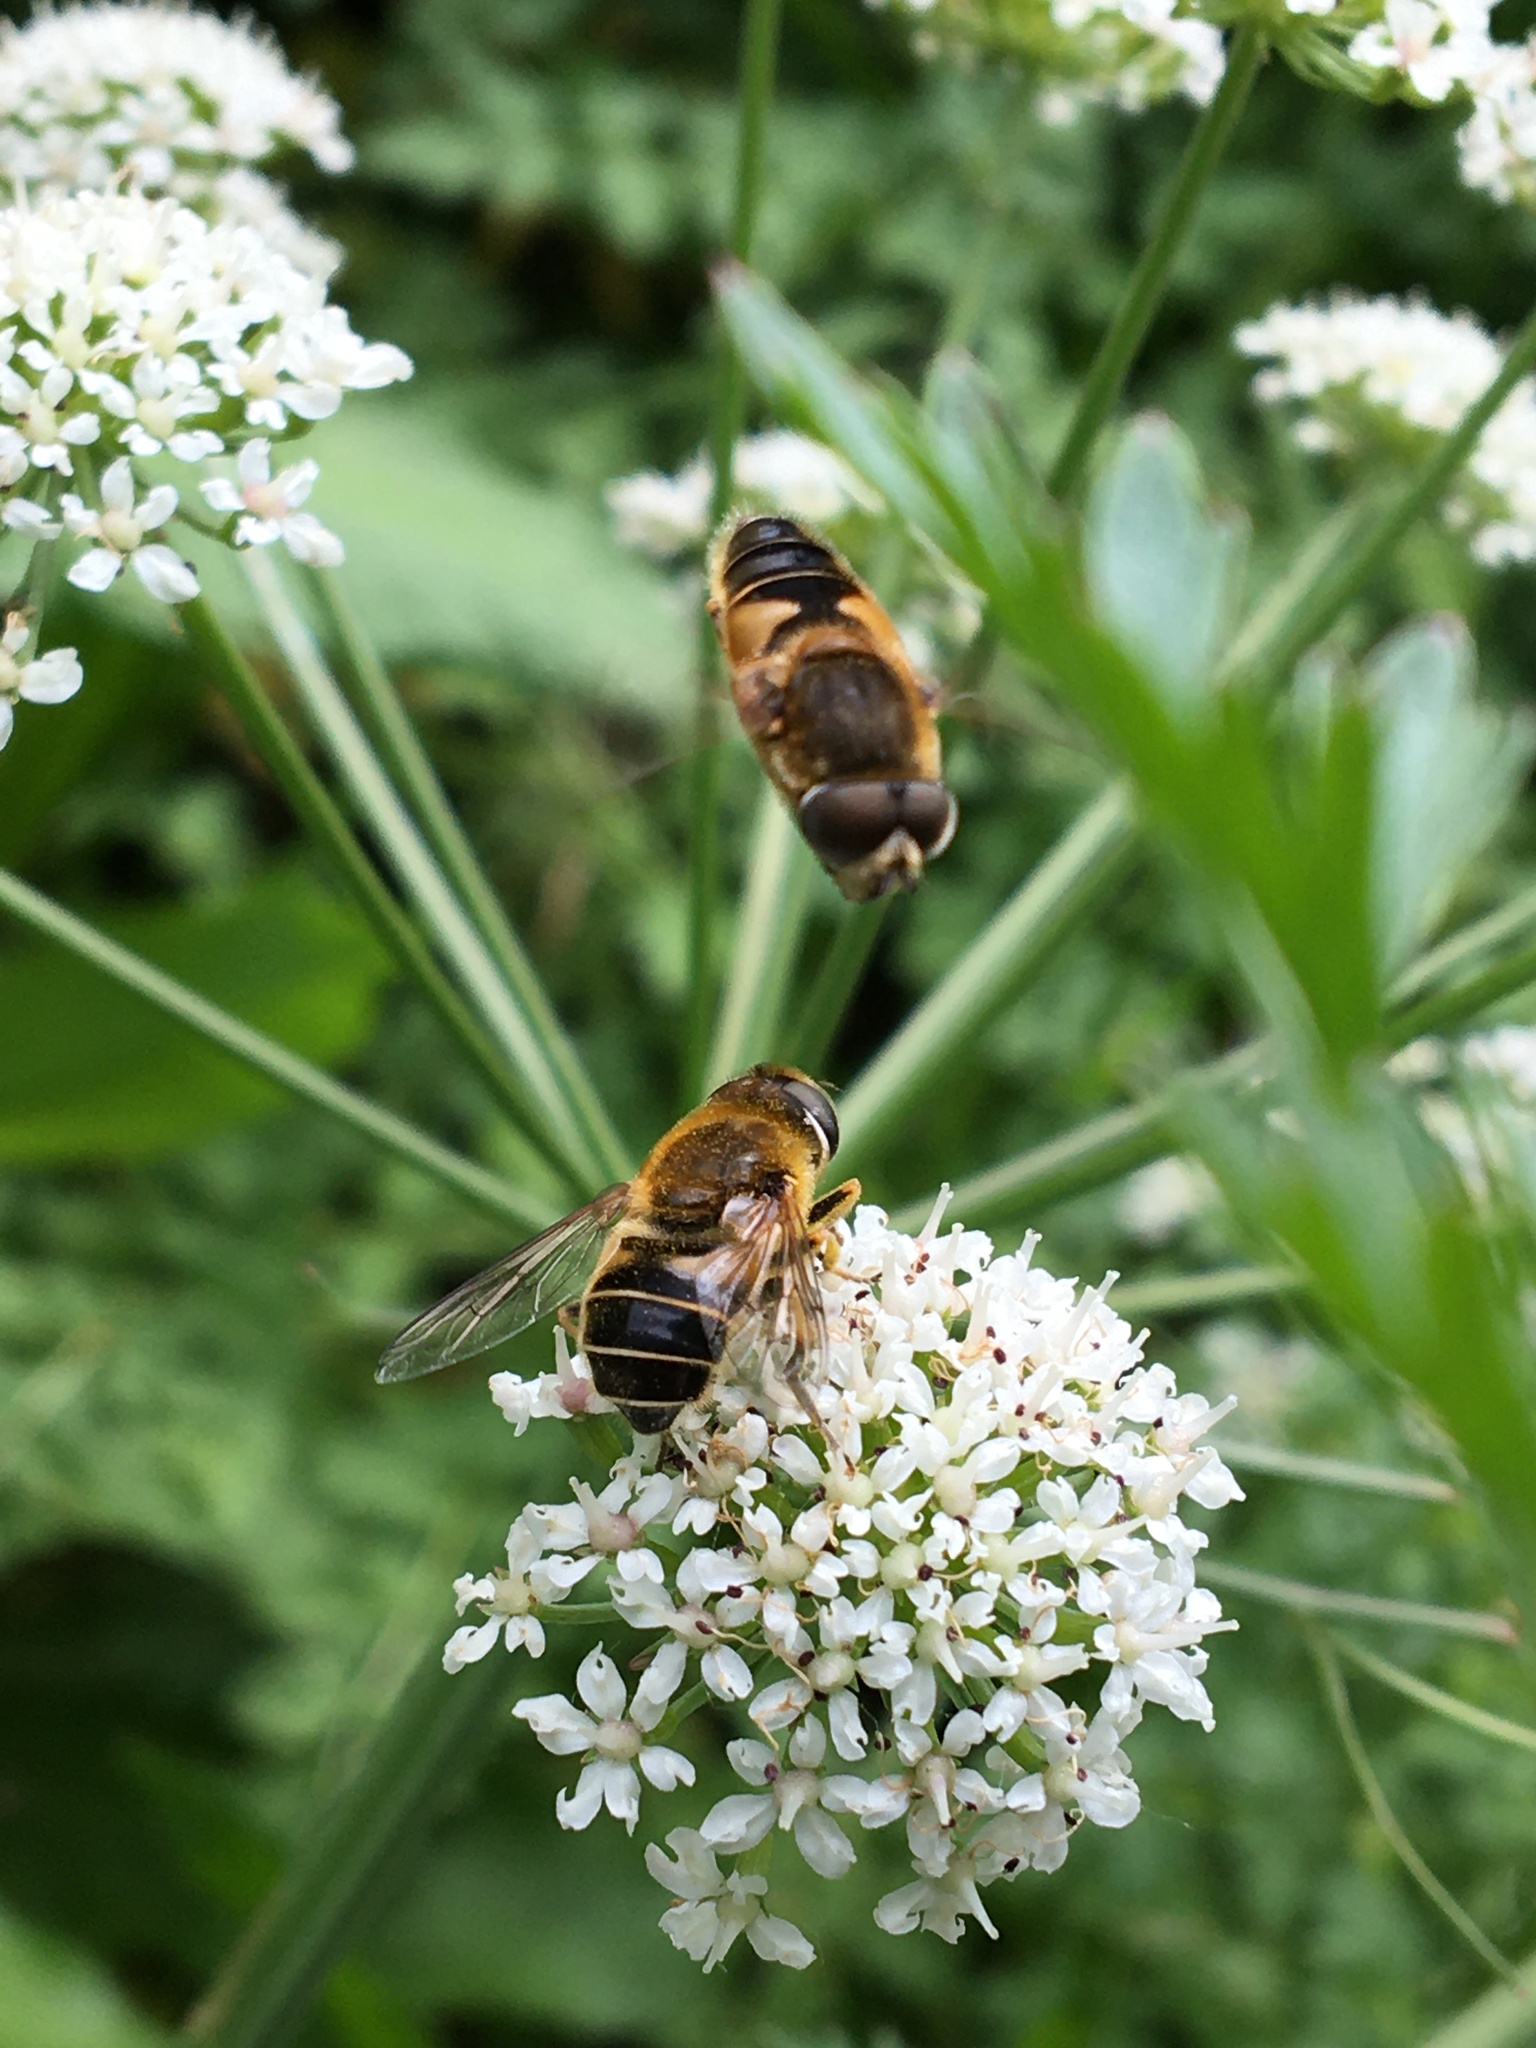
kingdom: Animalia
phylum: Arthropoda
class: Insecta
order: Diptera
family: Syrphidae
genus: Eristalis
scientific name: Eristalis nemorum
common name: Orange-spined drone fly
